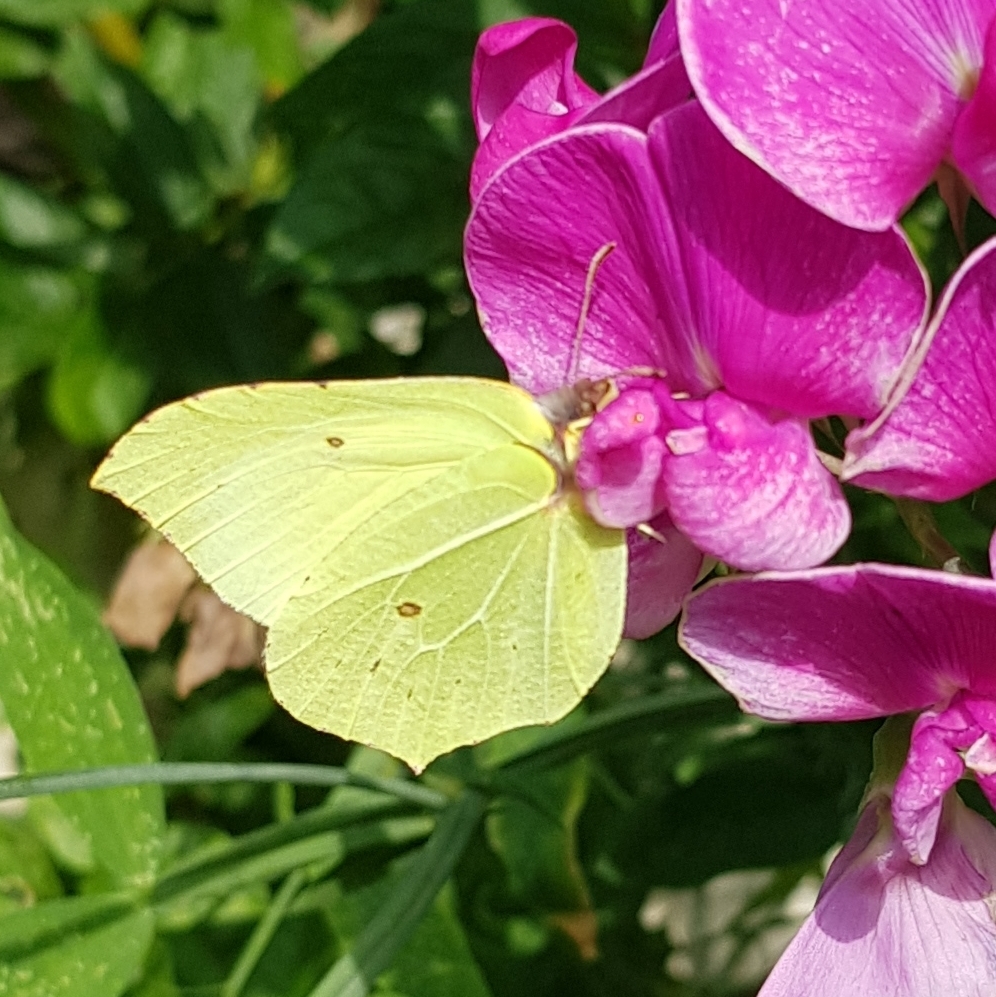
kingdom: Animalia
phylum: Arthropoda
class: Insecta
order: Lepidoptera
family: Pieridae
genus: Gonepteryx
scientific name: Gonepteryx rhamni
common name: Brimstone
